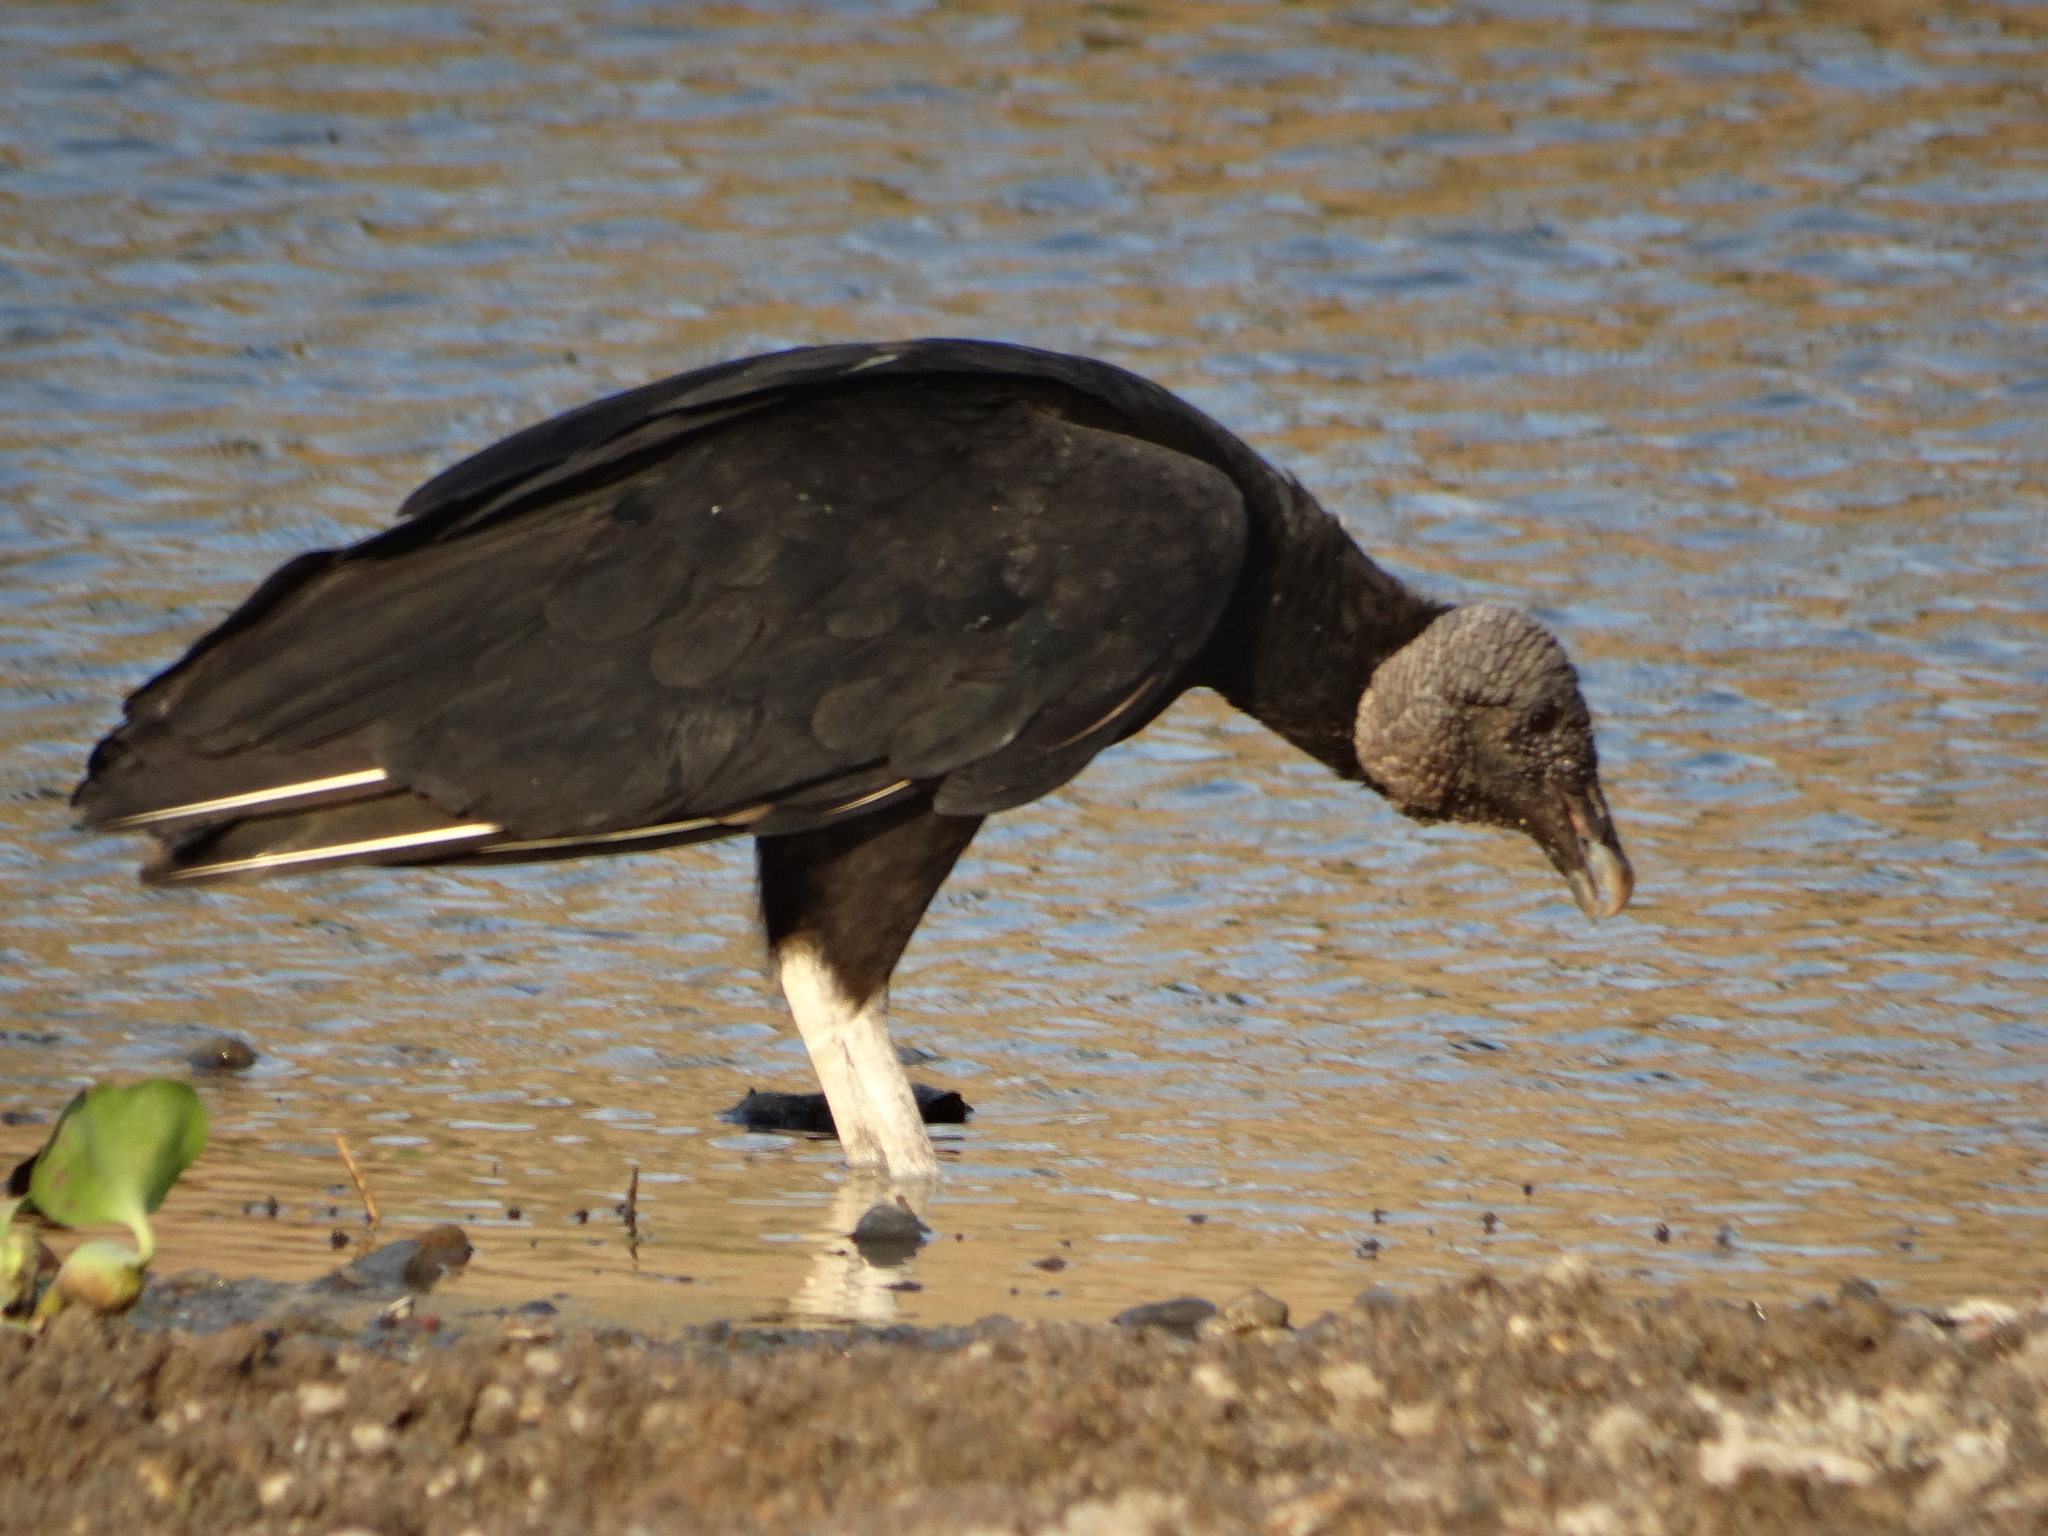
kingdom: Animalia
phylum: Chordata
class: Aves
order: Accipitriformes
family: Cathartidae
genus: Coragyps
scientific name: Coragyps atratus
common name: Black vulture
